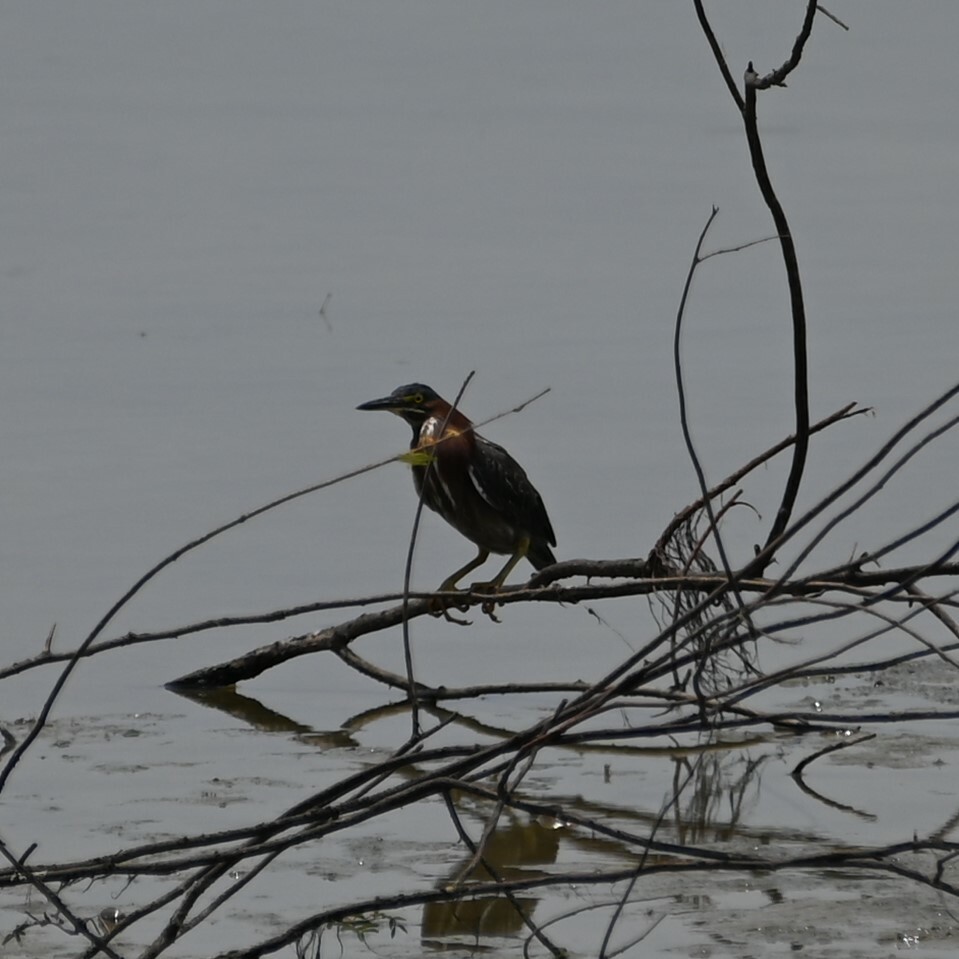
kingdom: Animalia
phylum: Chordata
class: Aves
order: Pelecaniformes
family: Ardeidae
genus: Butorides
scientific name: Butorides virescens
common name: Green heron
